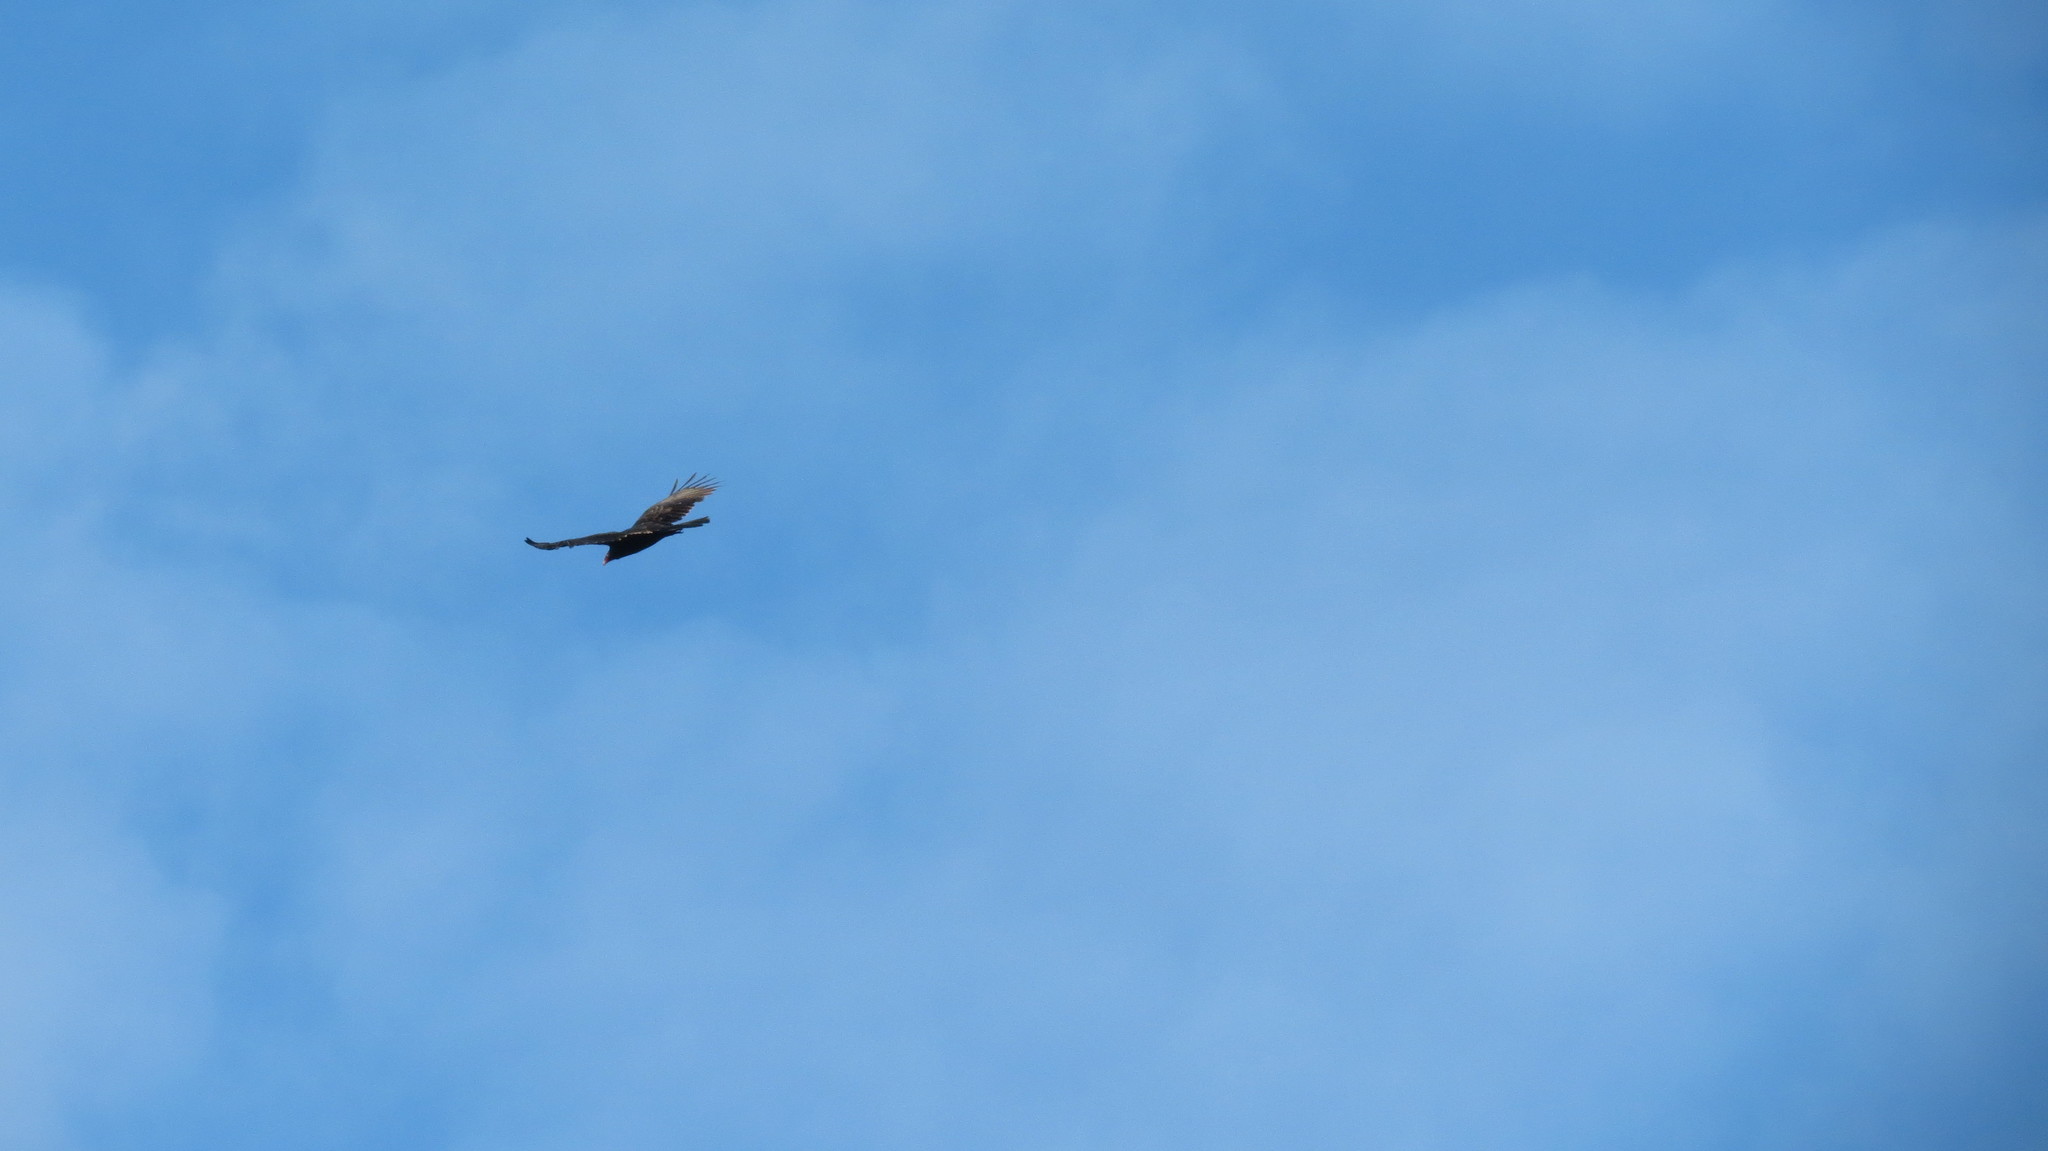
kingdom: Animalia
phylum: Chordata
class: Aves
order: Accipitriformes
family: Cathartidae
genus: Cathartes
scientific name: Cathartes aura
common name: Turkey vulture
